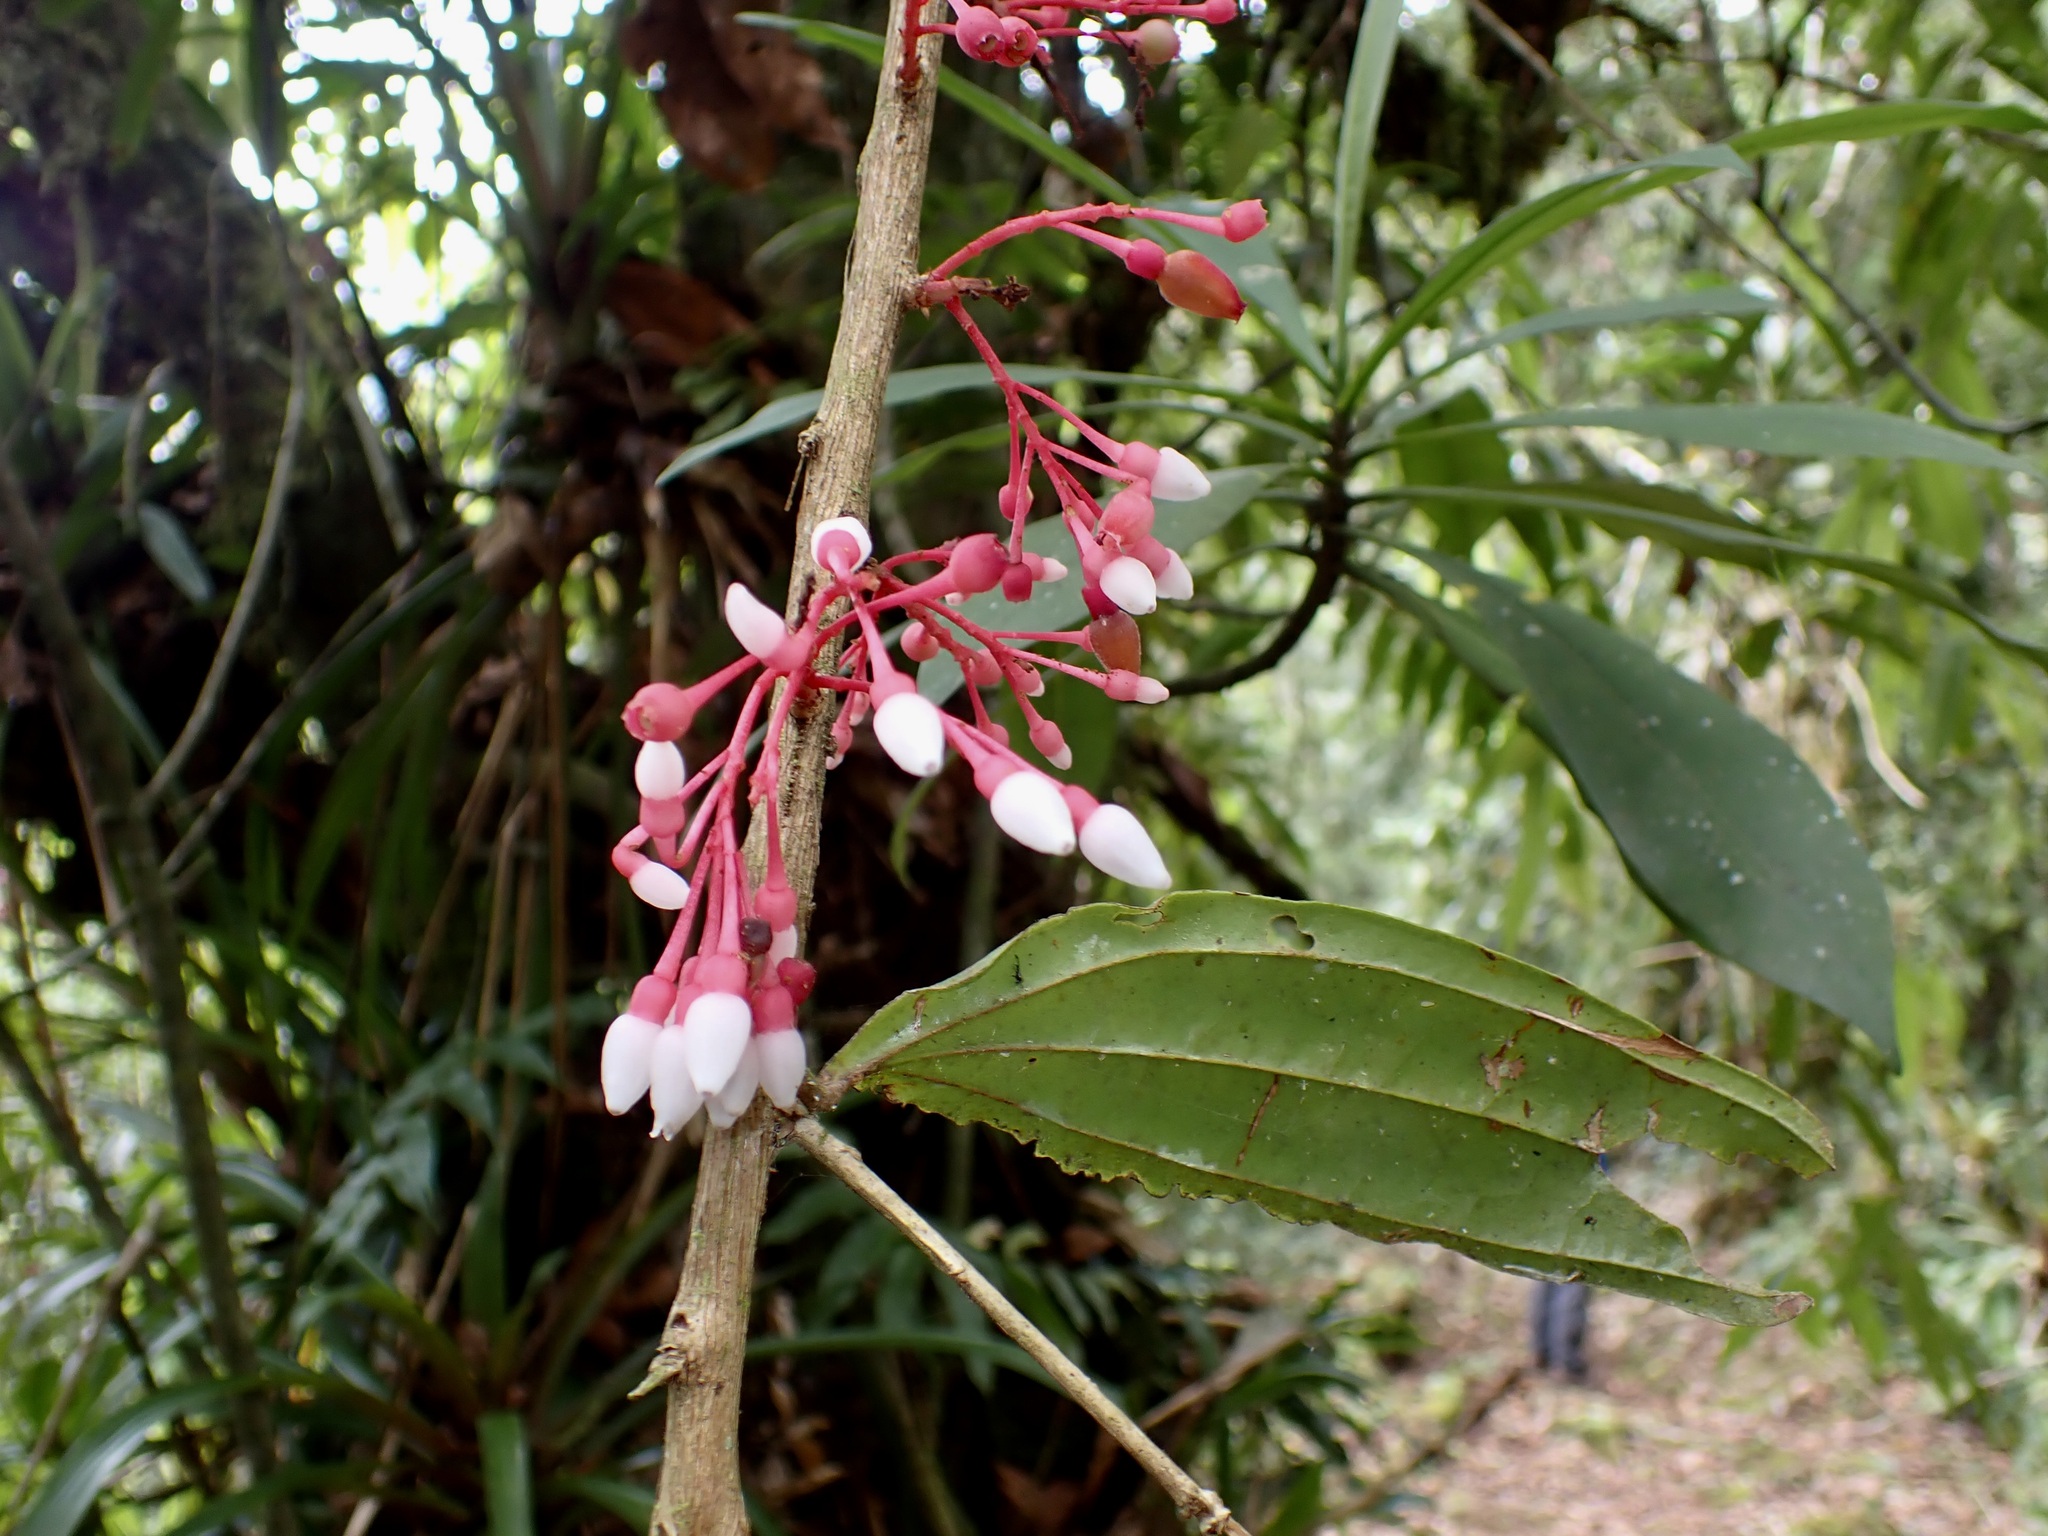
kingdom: Plantae
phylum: Tracheophyta
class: Magnoliopsida
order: Ericales
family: Ericaceae
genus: Thibaudia
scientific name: Thibaudia costaricensis
